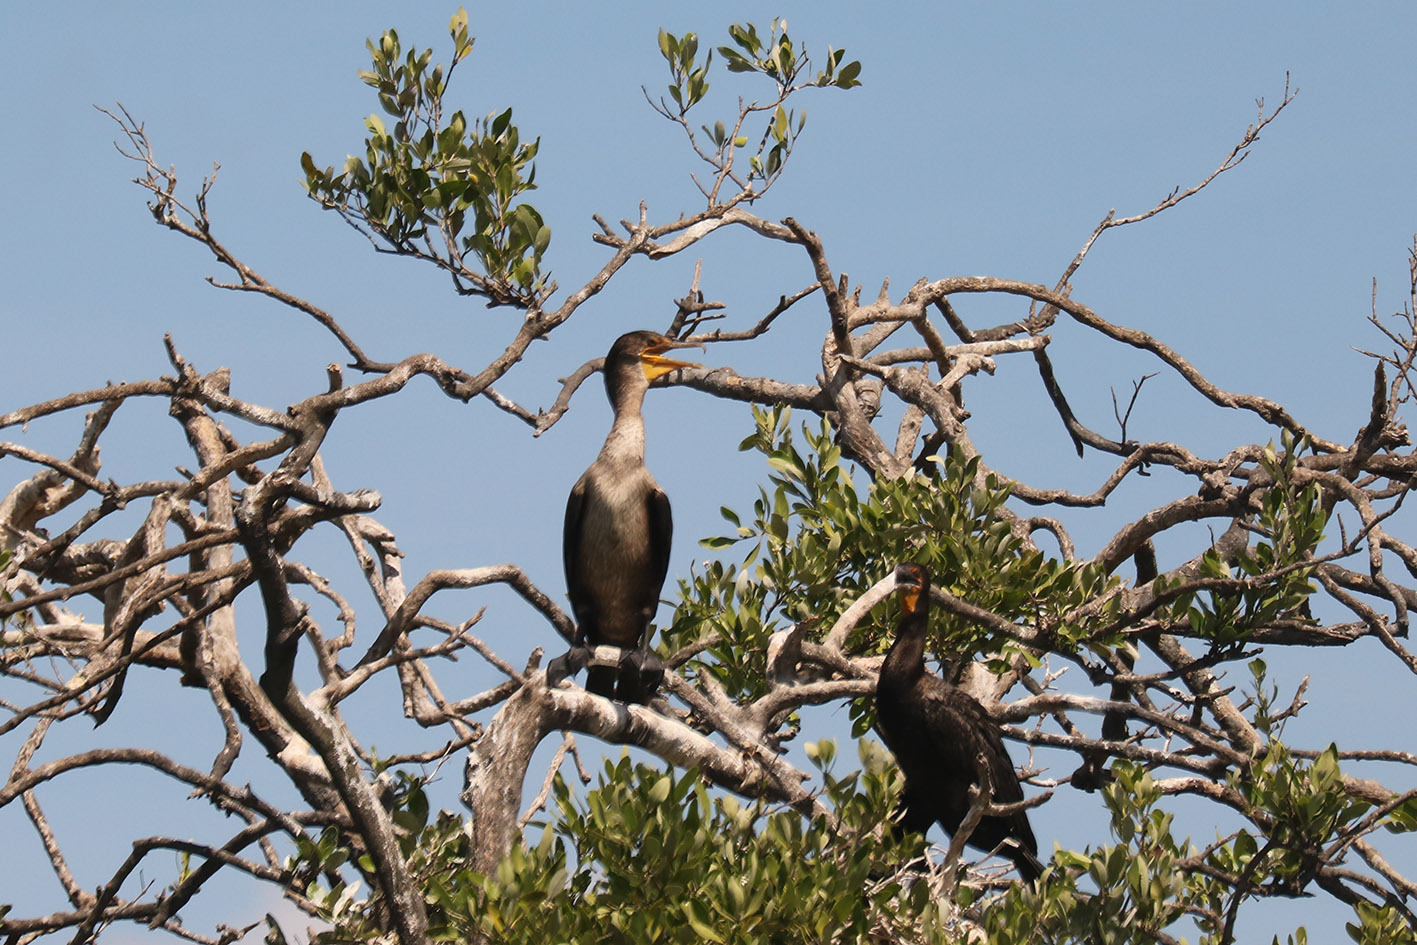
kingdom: Animalia
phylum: Chordata
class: Aves
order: Suliformes
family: Phalacrocoracidae
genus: Phalacrocorax
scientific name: Phalacrocorax auritus
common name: Double-crested cormorant
